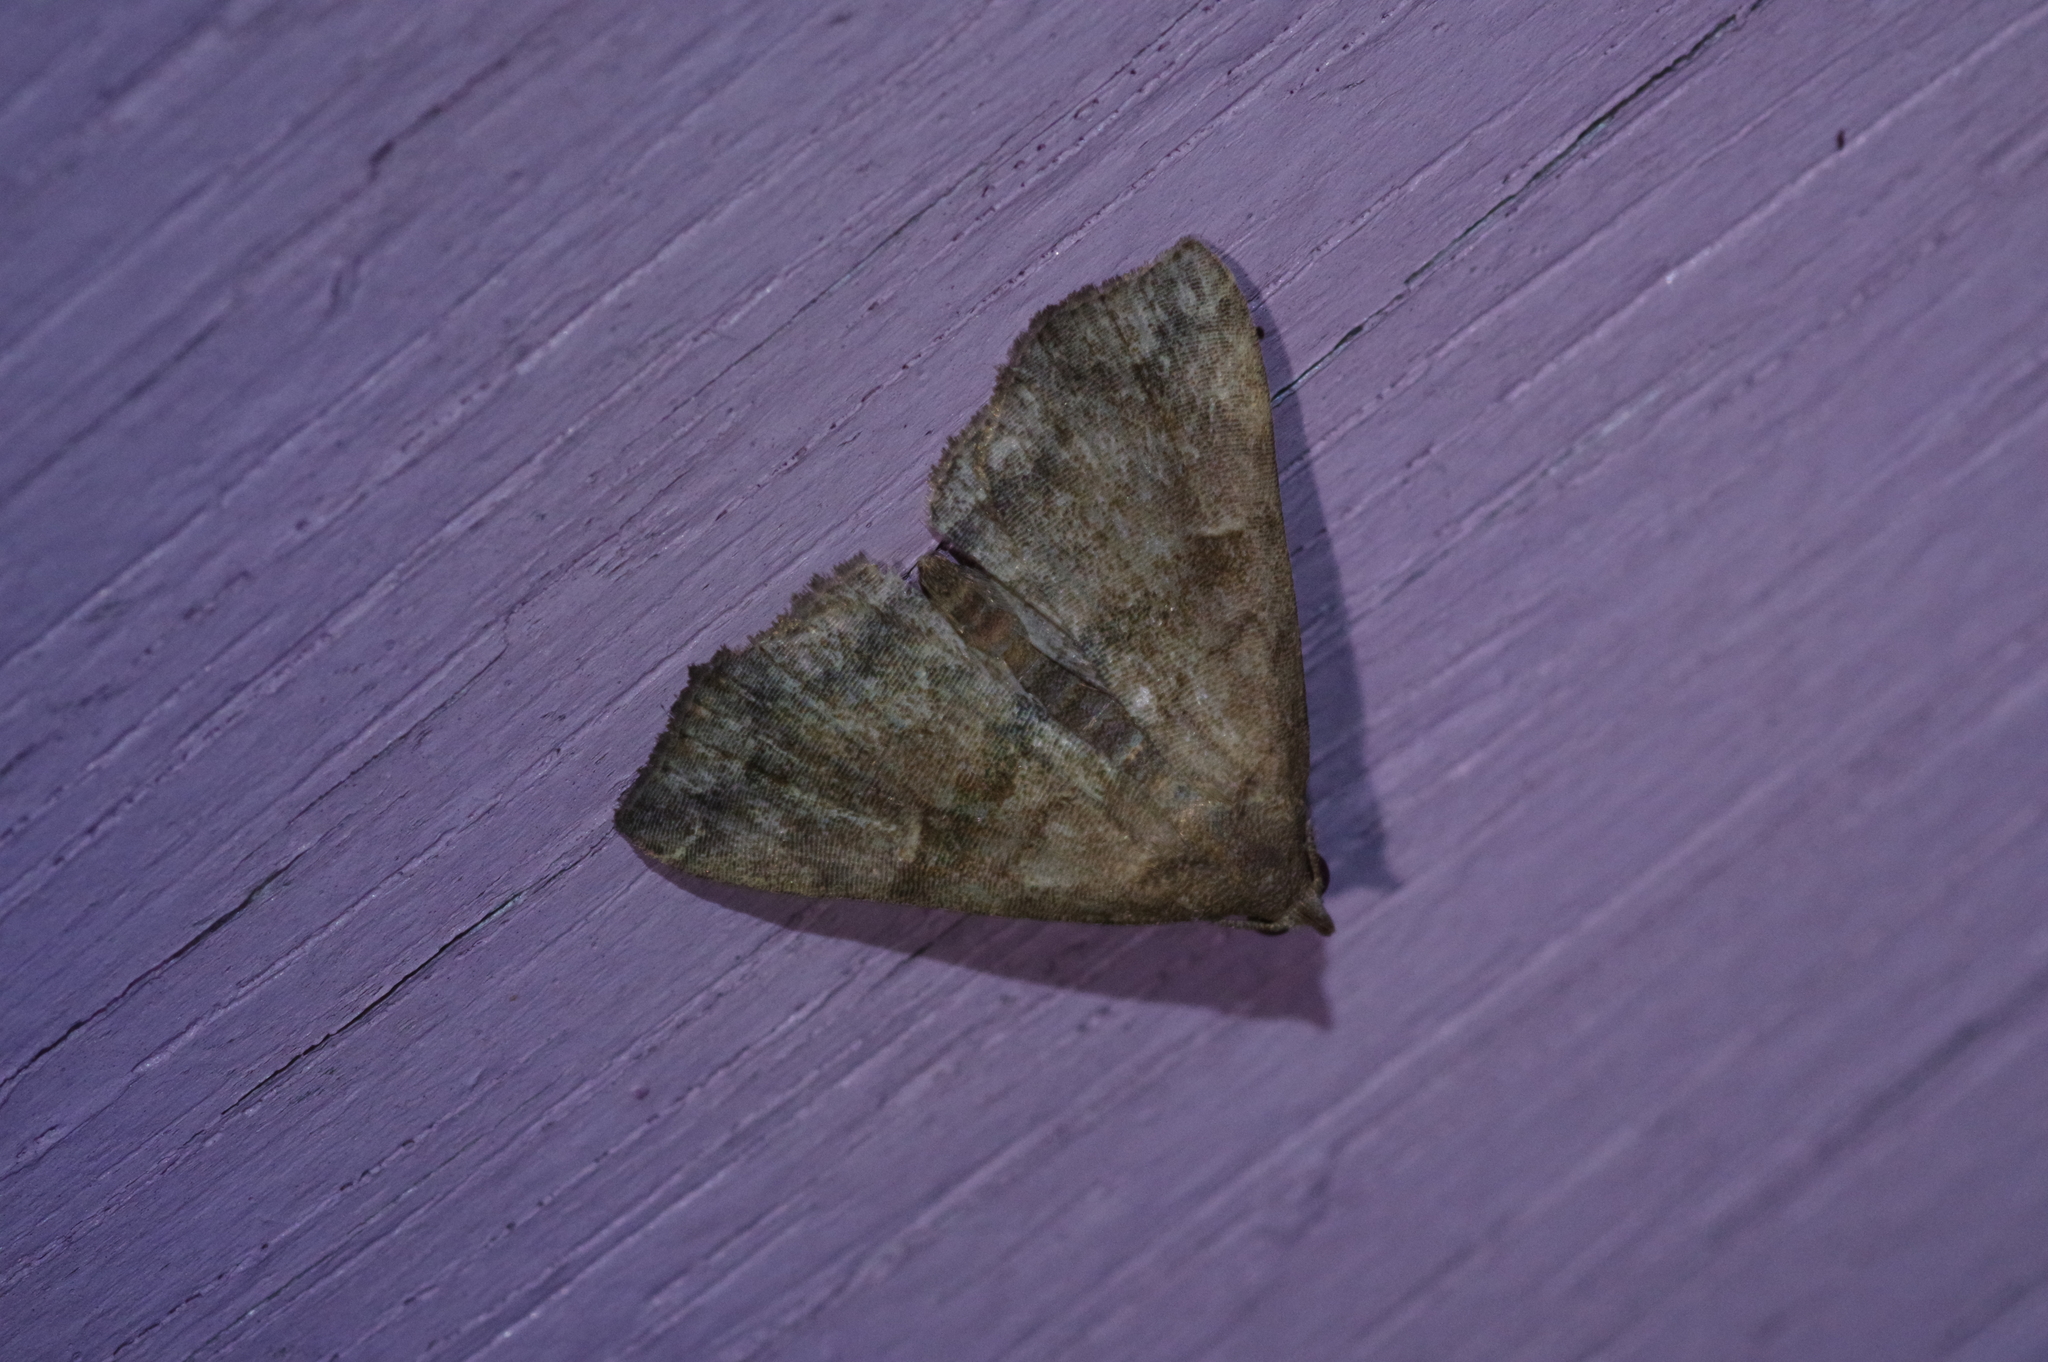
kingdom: Animalia
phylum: Arthropoda
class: Insecta
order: Lepidoptera
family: Erebidae
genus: Polypogon
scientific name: Polypogon Hipoepa fractalis
